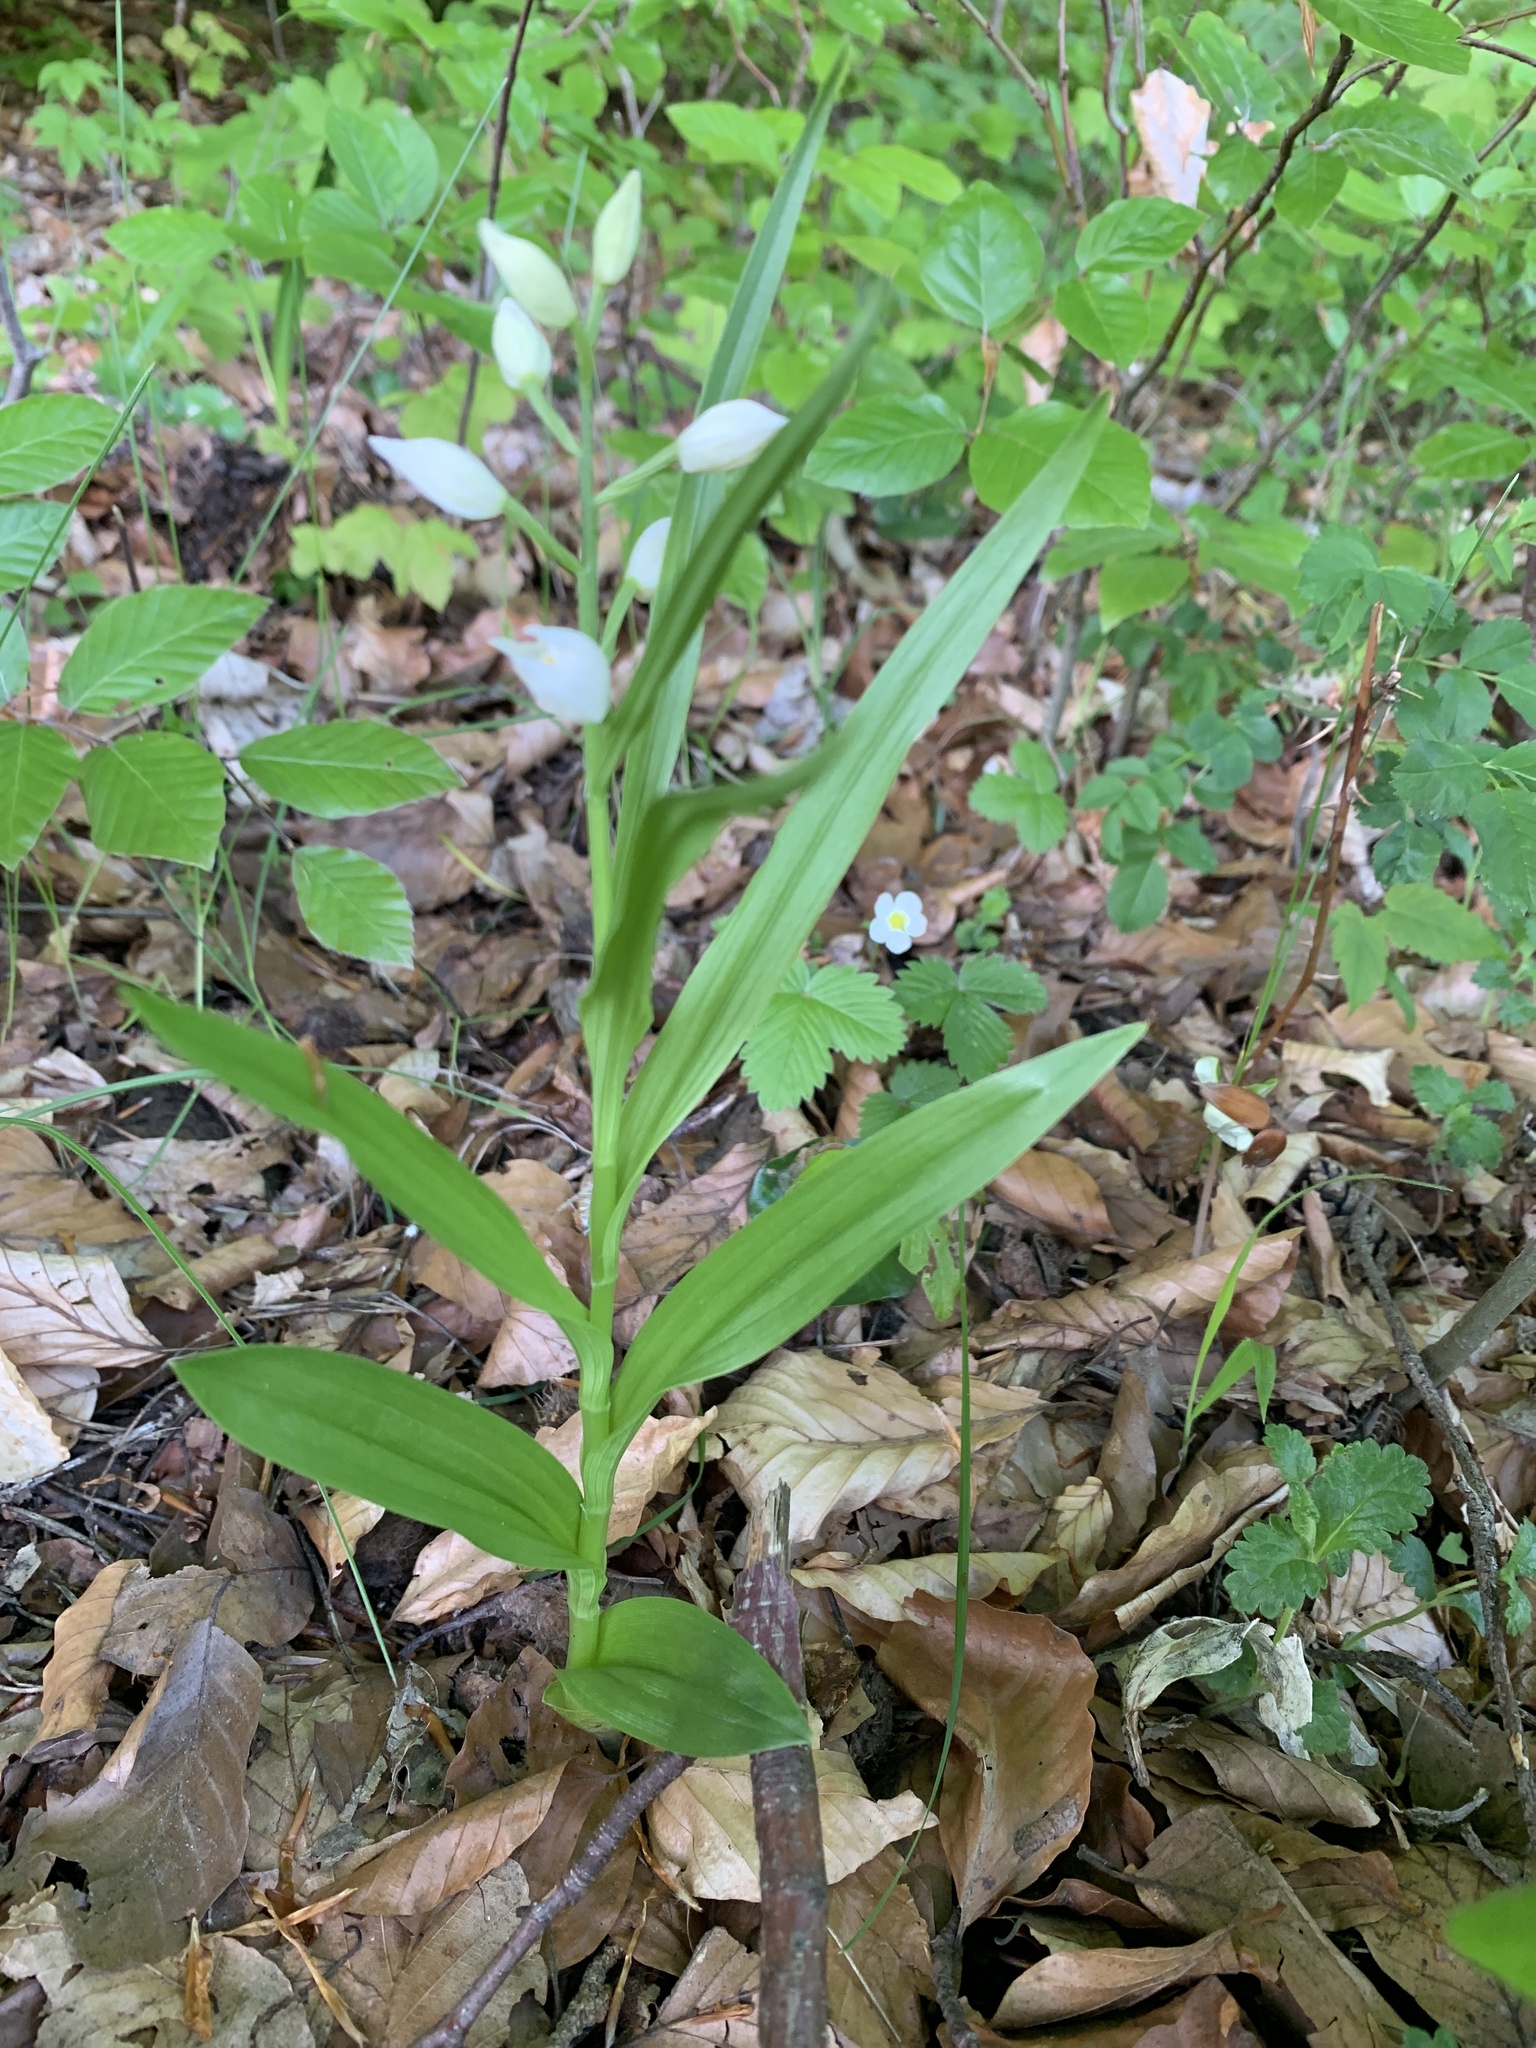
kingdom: Plantae
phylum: Tracheophyta
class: Liliopsida
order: Asparagales
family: Orchidaceae
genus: Cephalanthera
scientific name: Cephalanthera longifolia
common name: Narrow-leaved helleborine
